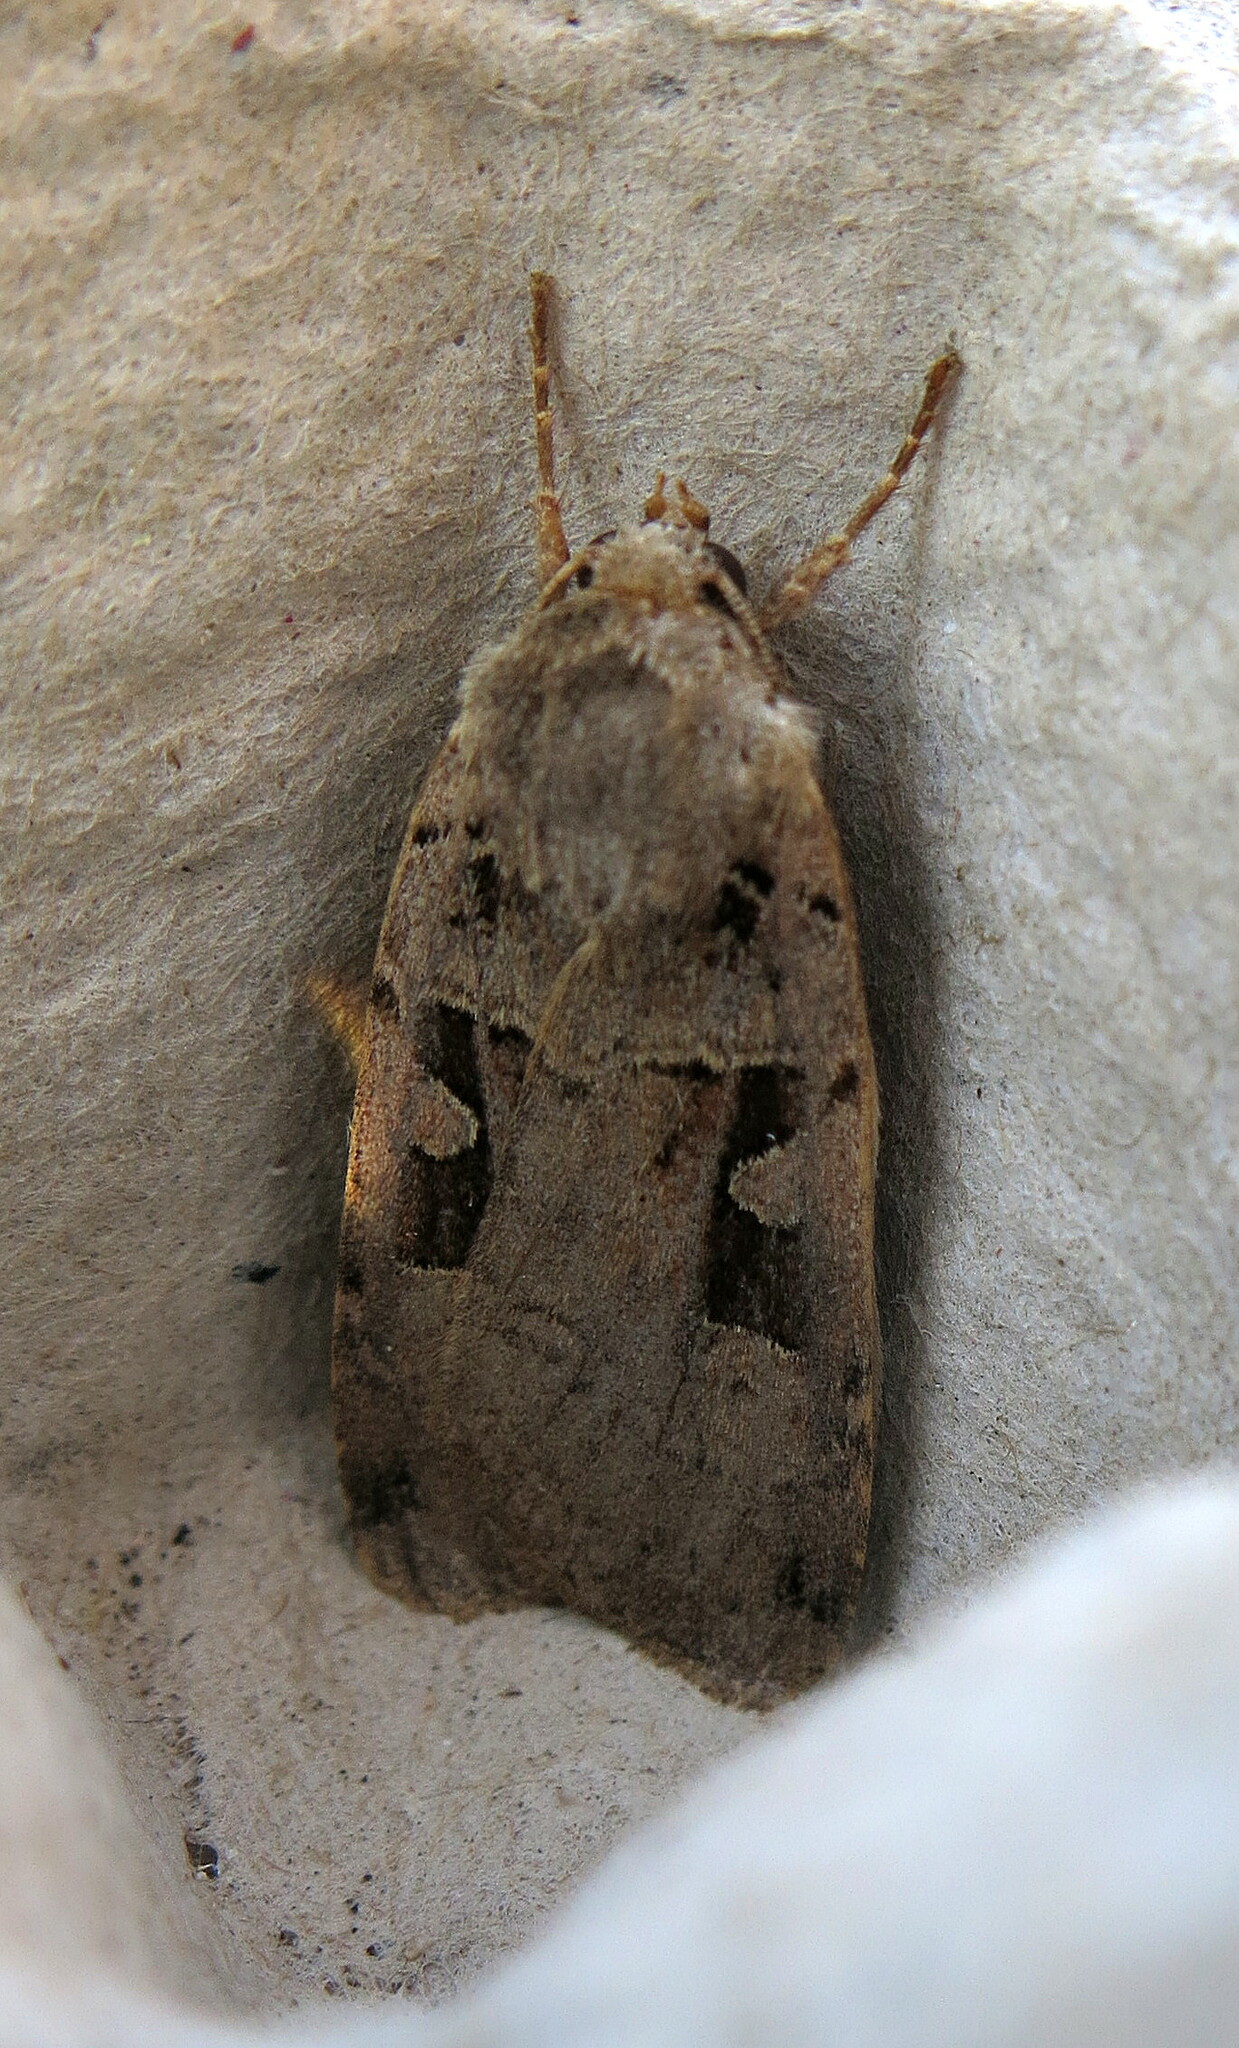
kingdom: Animalia
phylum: Arthropoda
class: Insecta
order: Lepidoptera
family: Noctuidae
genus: Xestia
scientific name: Xestia triangulum
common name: Double square-spot
